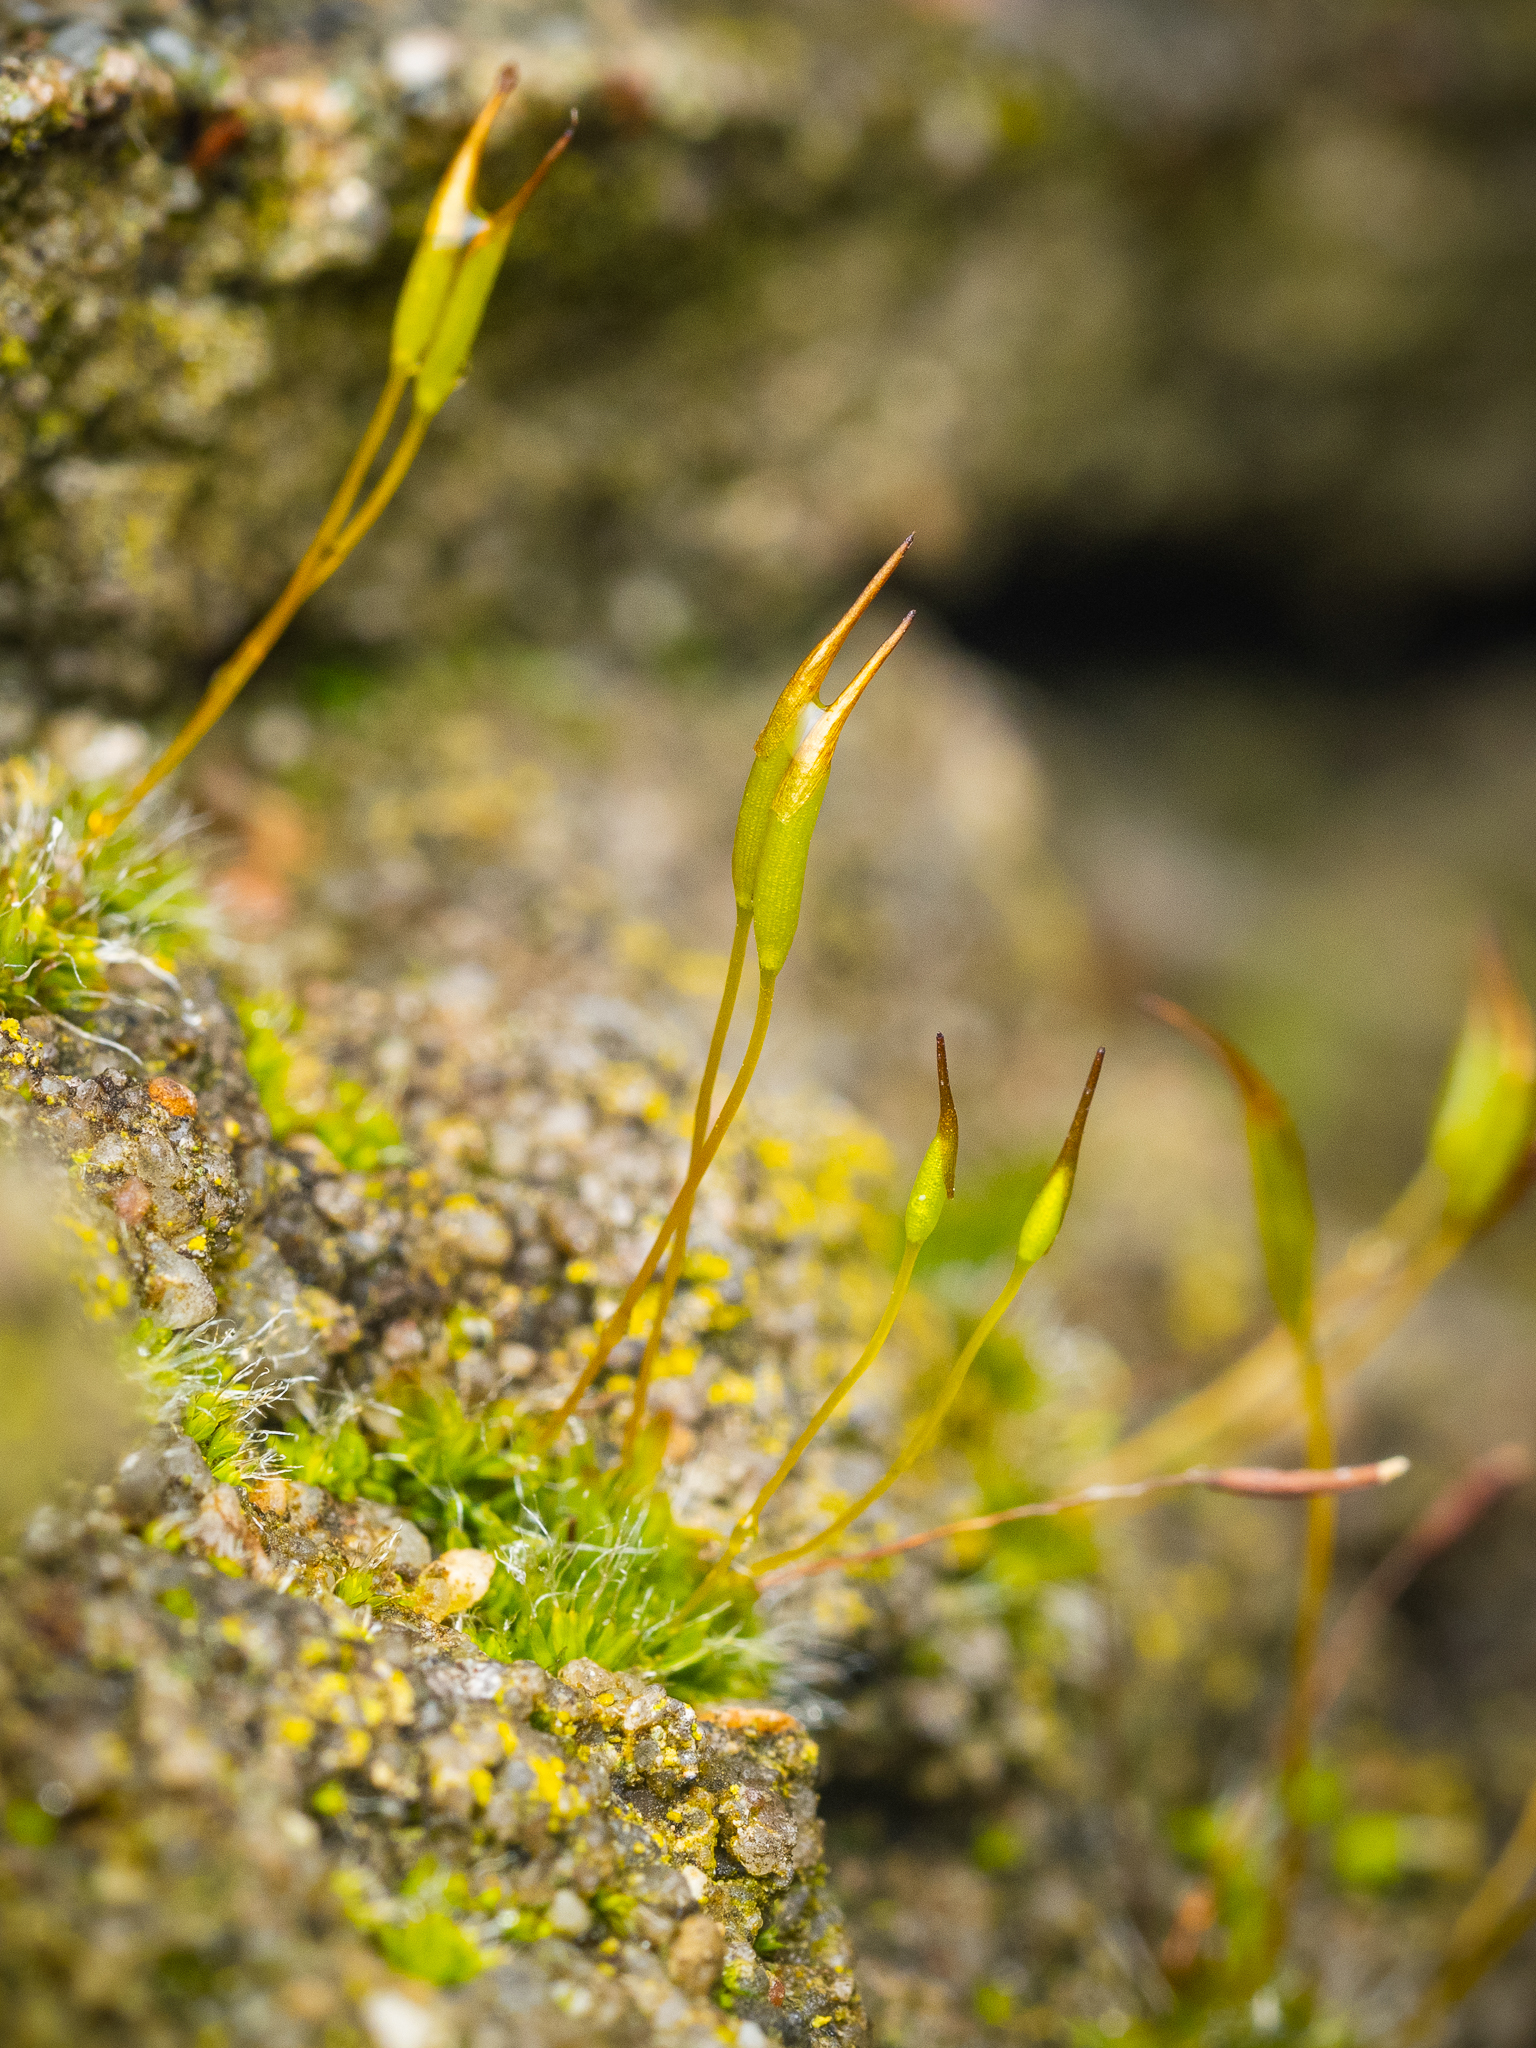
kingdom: Plantae
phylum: Bryophyta
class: Bryopsida
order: Pottiales
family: Pottiaceae
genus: Tortula
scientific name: Tortula muralis
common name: Wall screw-moss
